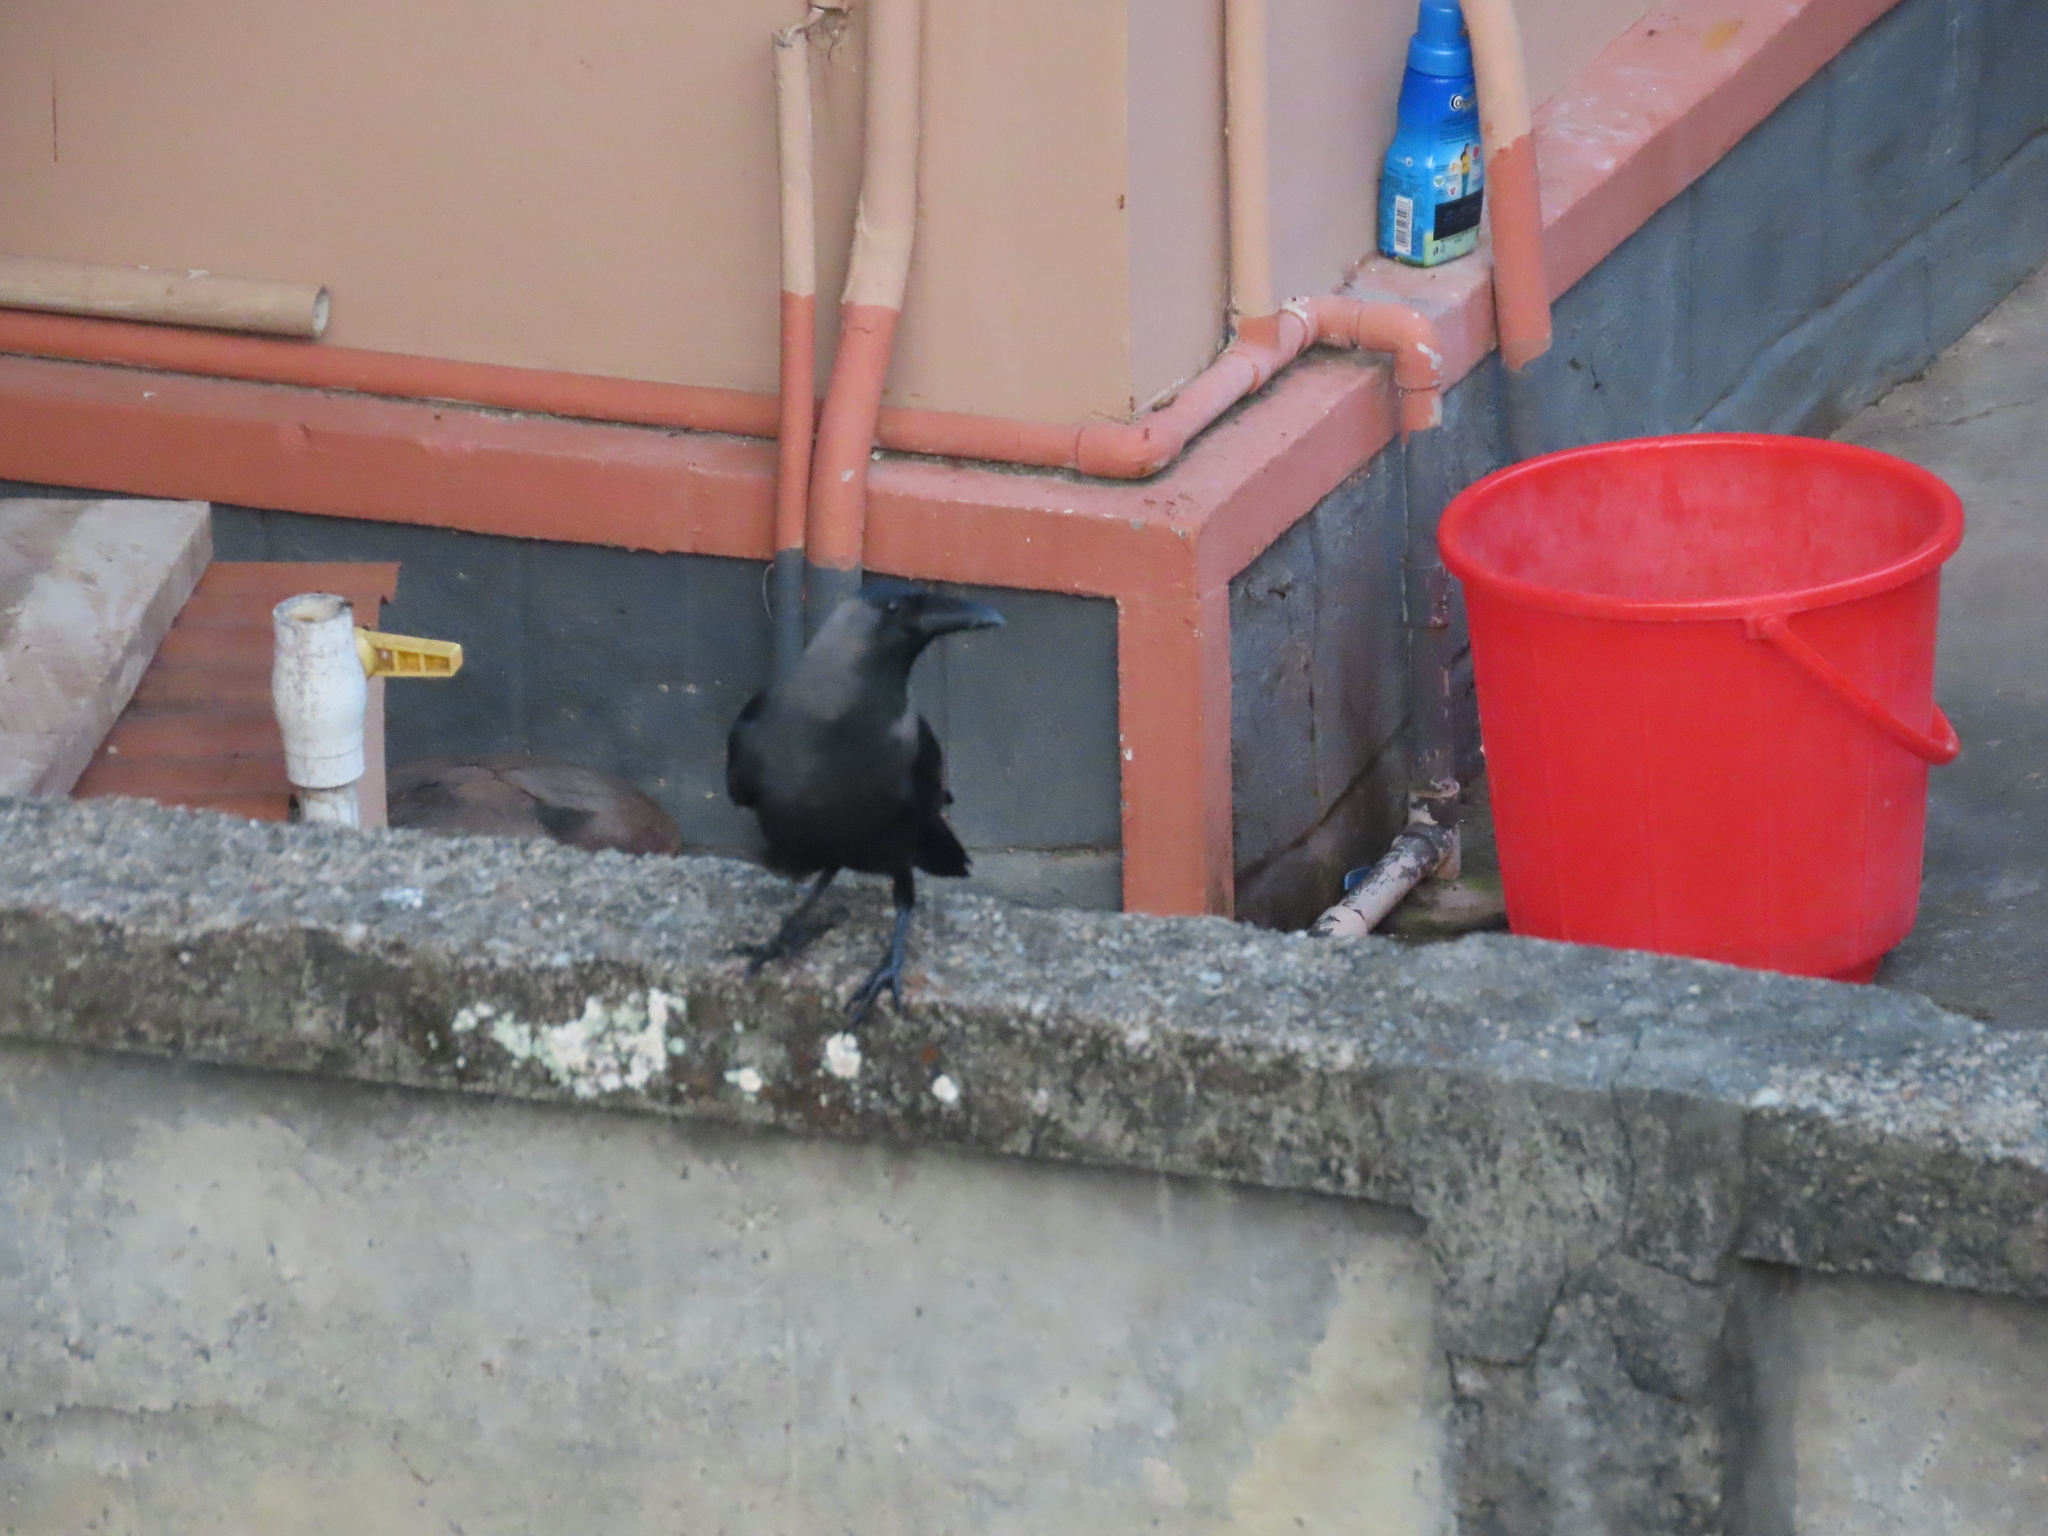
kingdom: Animalia
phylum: Chordata
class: Aves
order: Passeriformes
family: Corvidae
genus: Corvus
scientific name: Corvus splendens
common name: House crow
